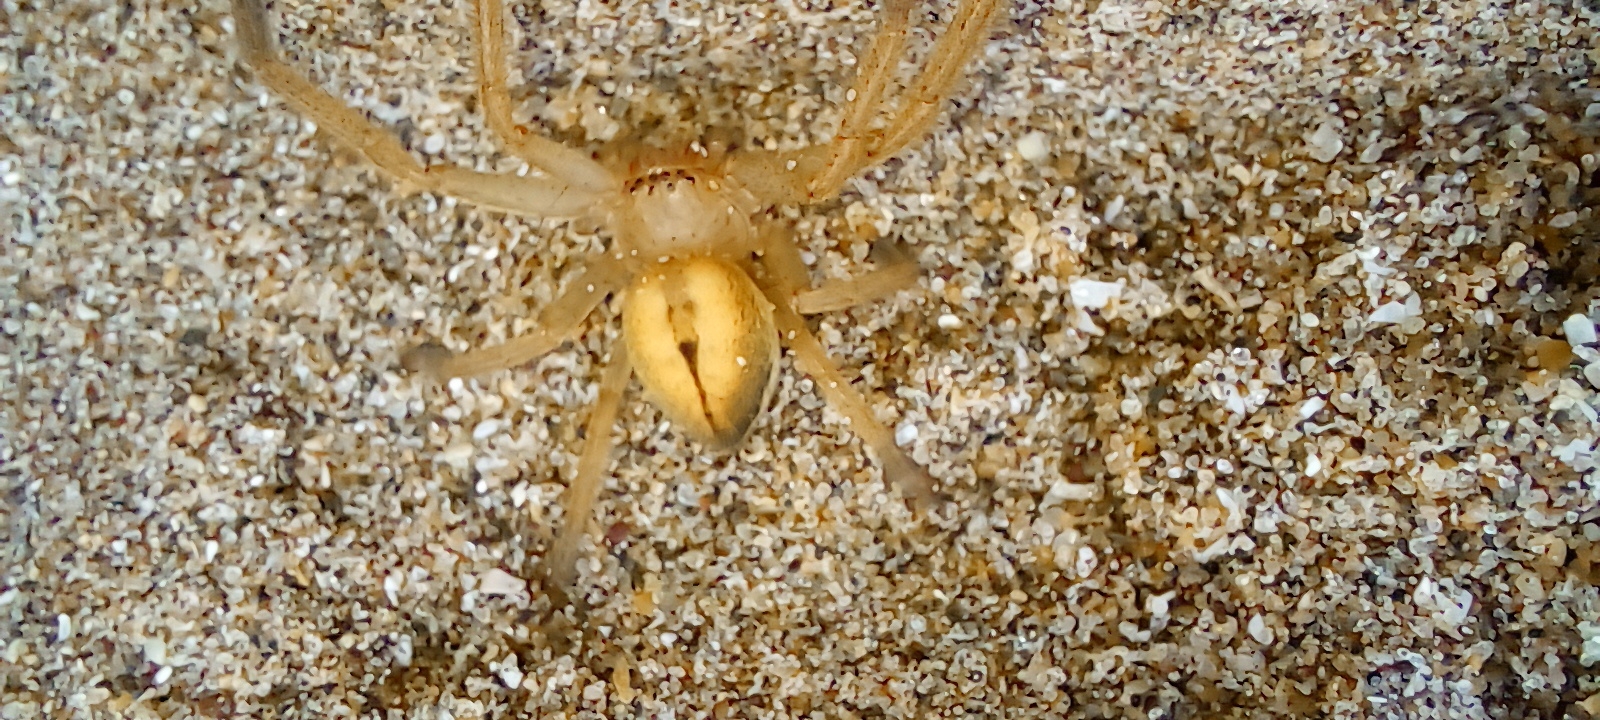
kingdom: Animalia
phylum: Arthropoda
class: Arachnida
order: Araneae
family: Sparassidae
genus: Polybetes
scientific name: Polybetes pallidus
